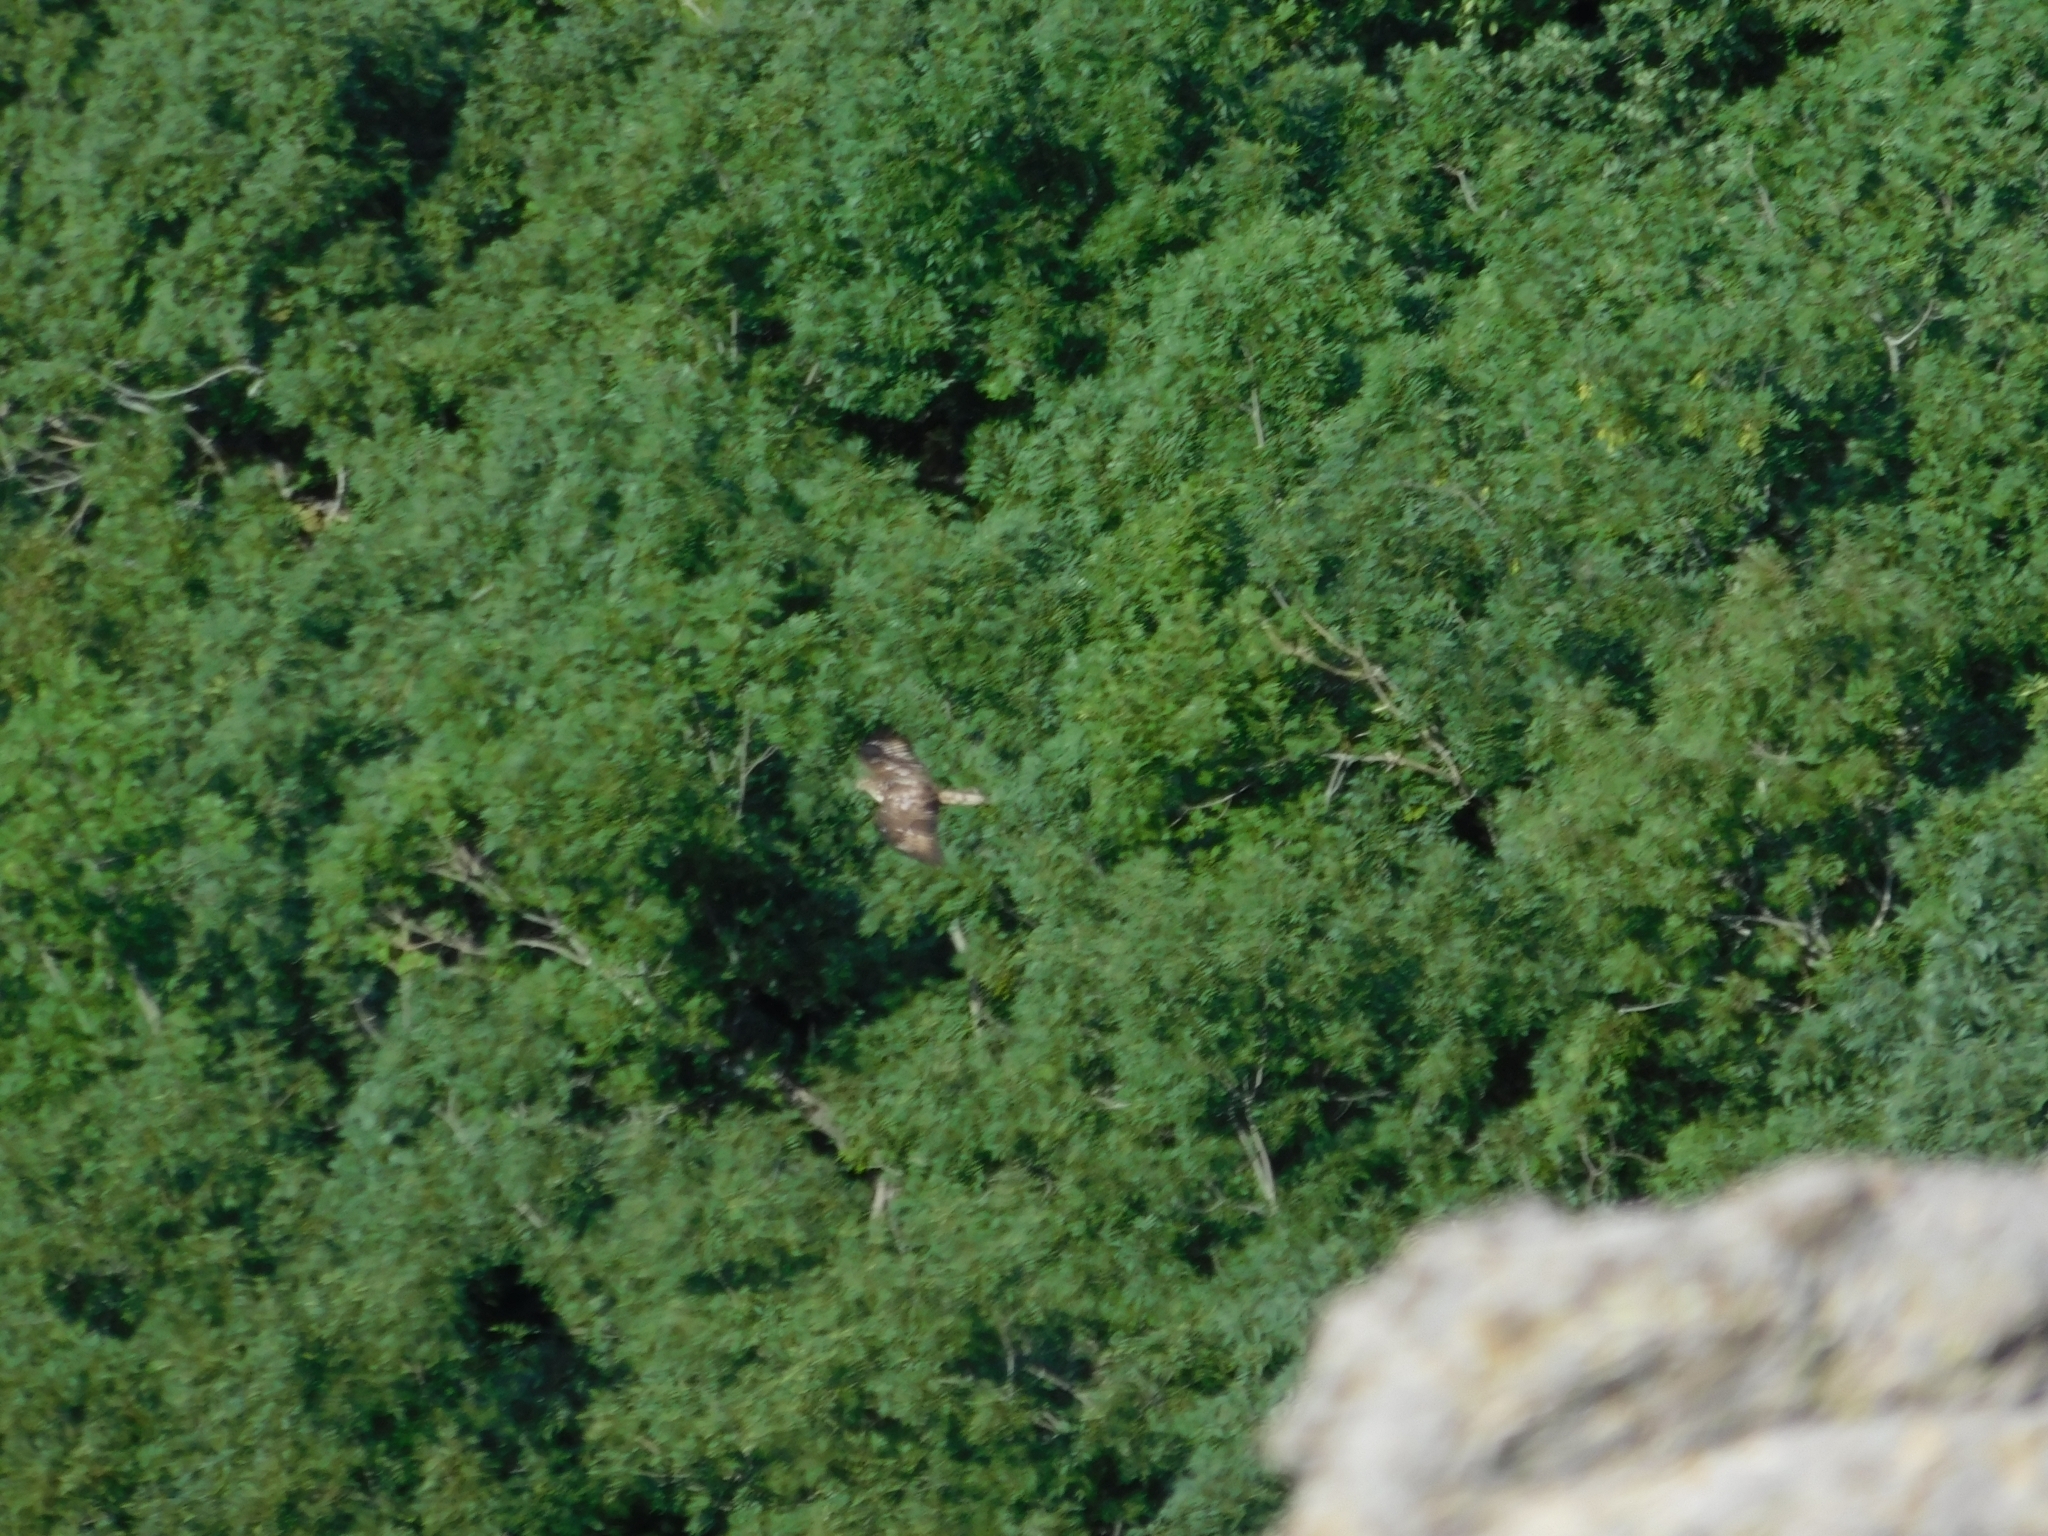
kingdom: Animalia
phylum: Chordata
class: Aves
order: Accipitriformes
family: Accipitridae
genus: Pernis
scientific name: Pernis apivorus
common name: European honey buzzard
